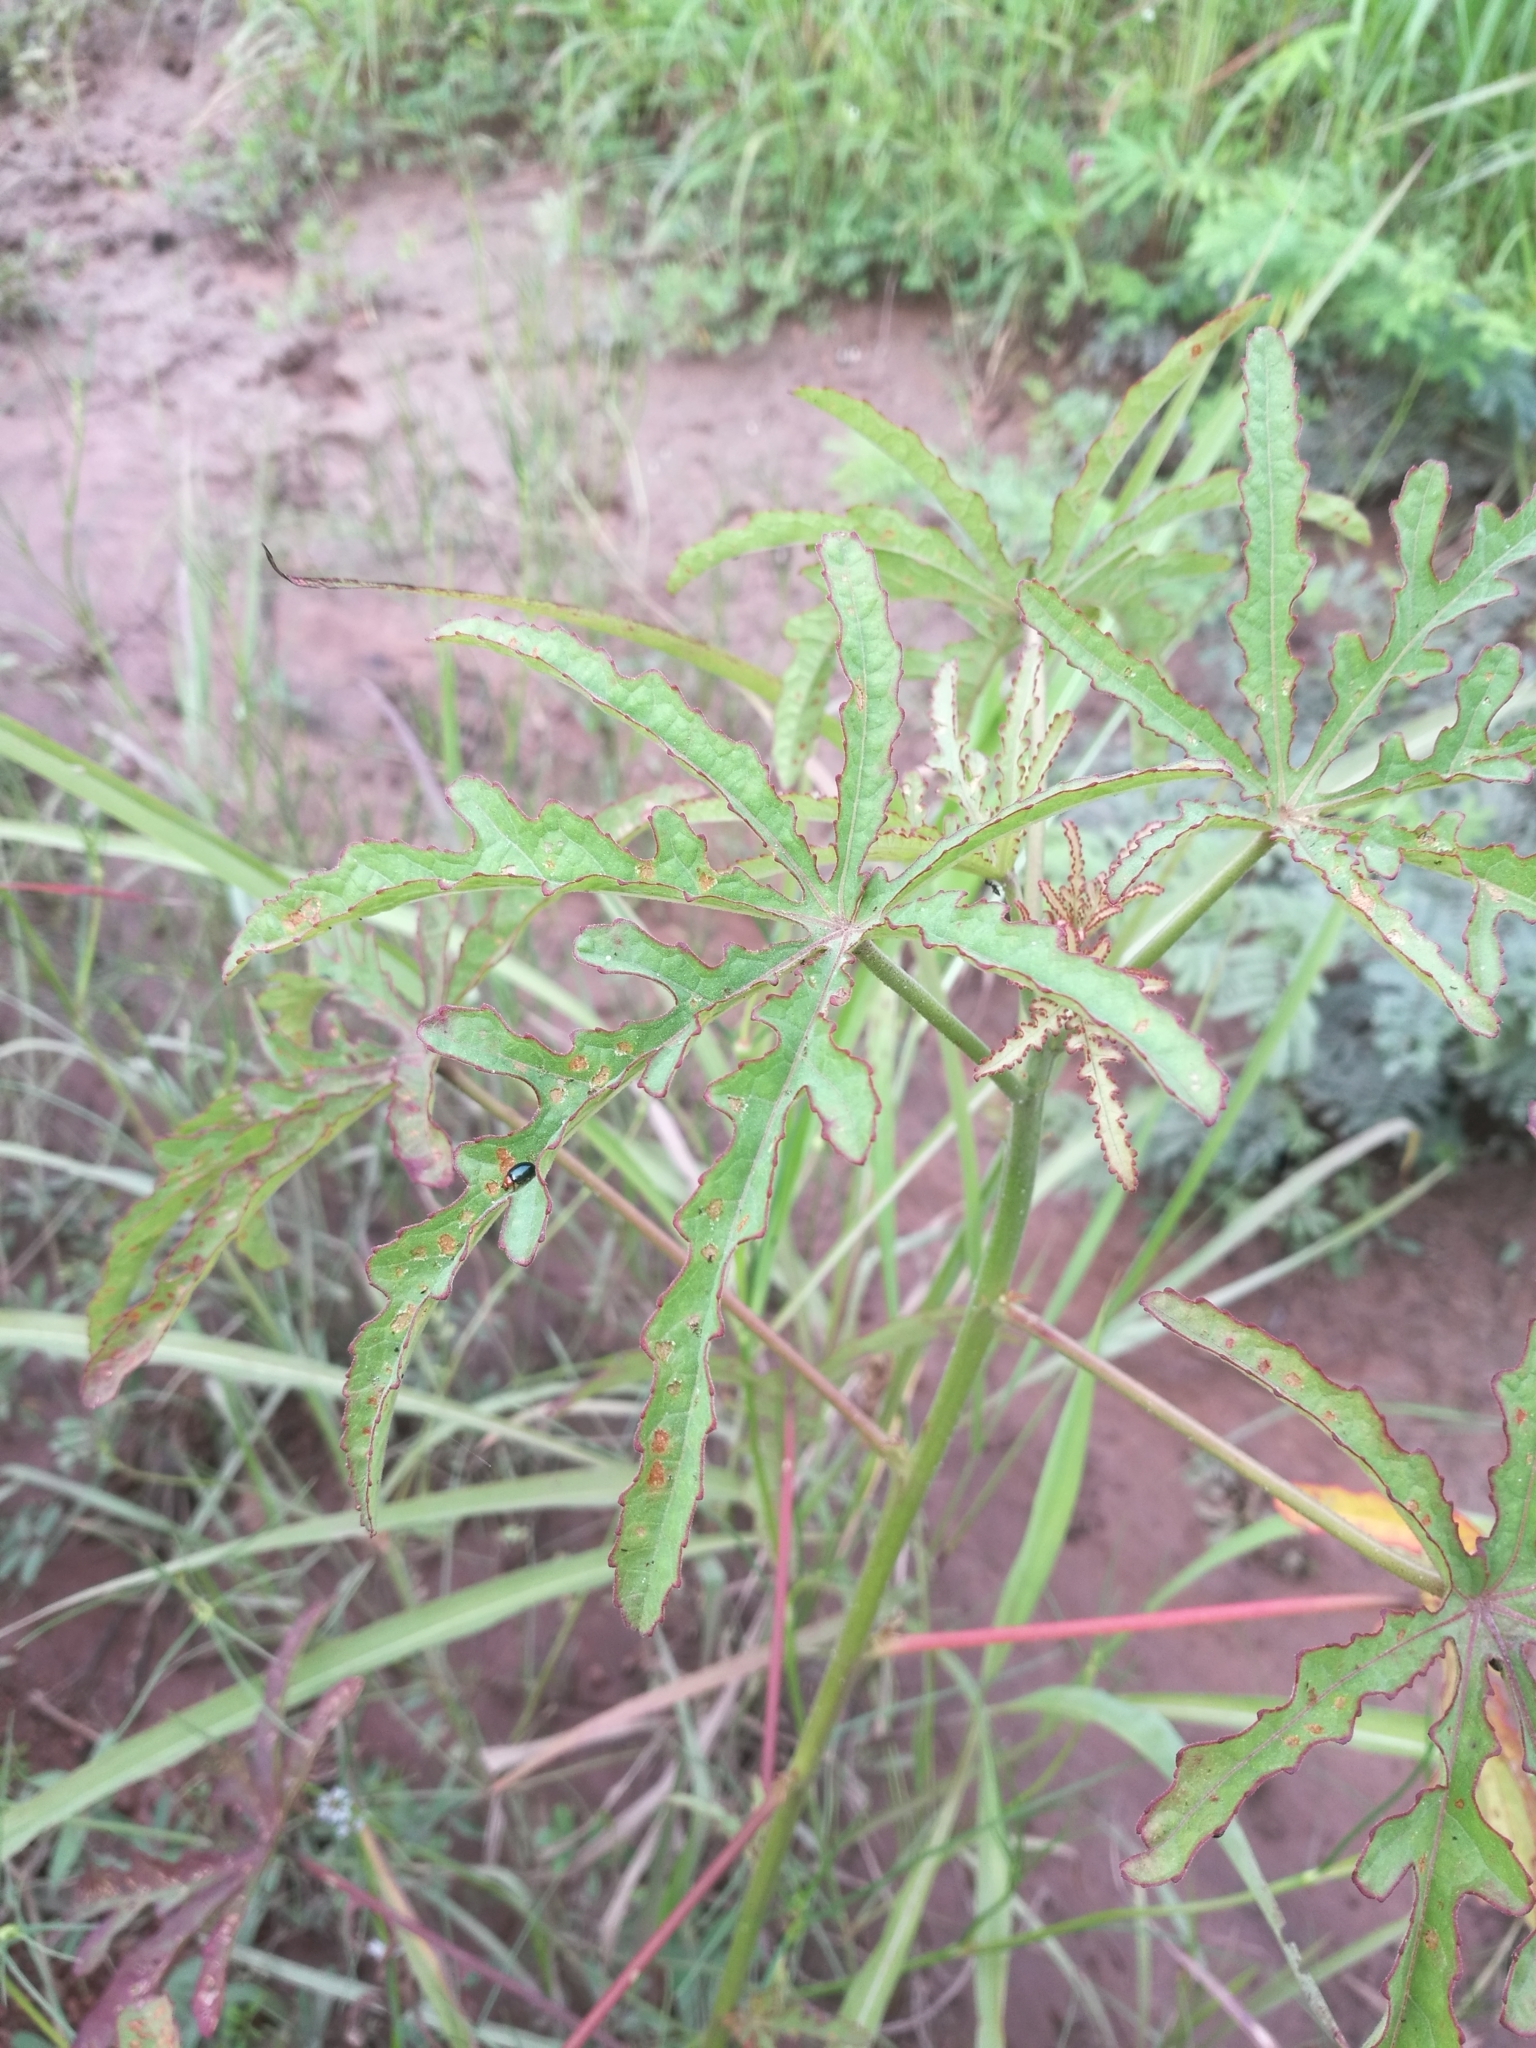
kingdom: Plantae
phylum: Tracheophyta
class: Magnoliopsida
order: Malvales
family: Malvaceae
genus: Hibiscus
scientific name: Hibiscus cannabinus
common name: Brown indianhemp
